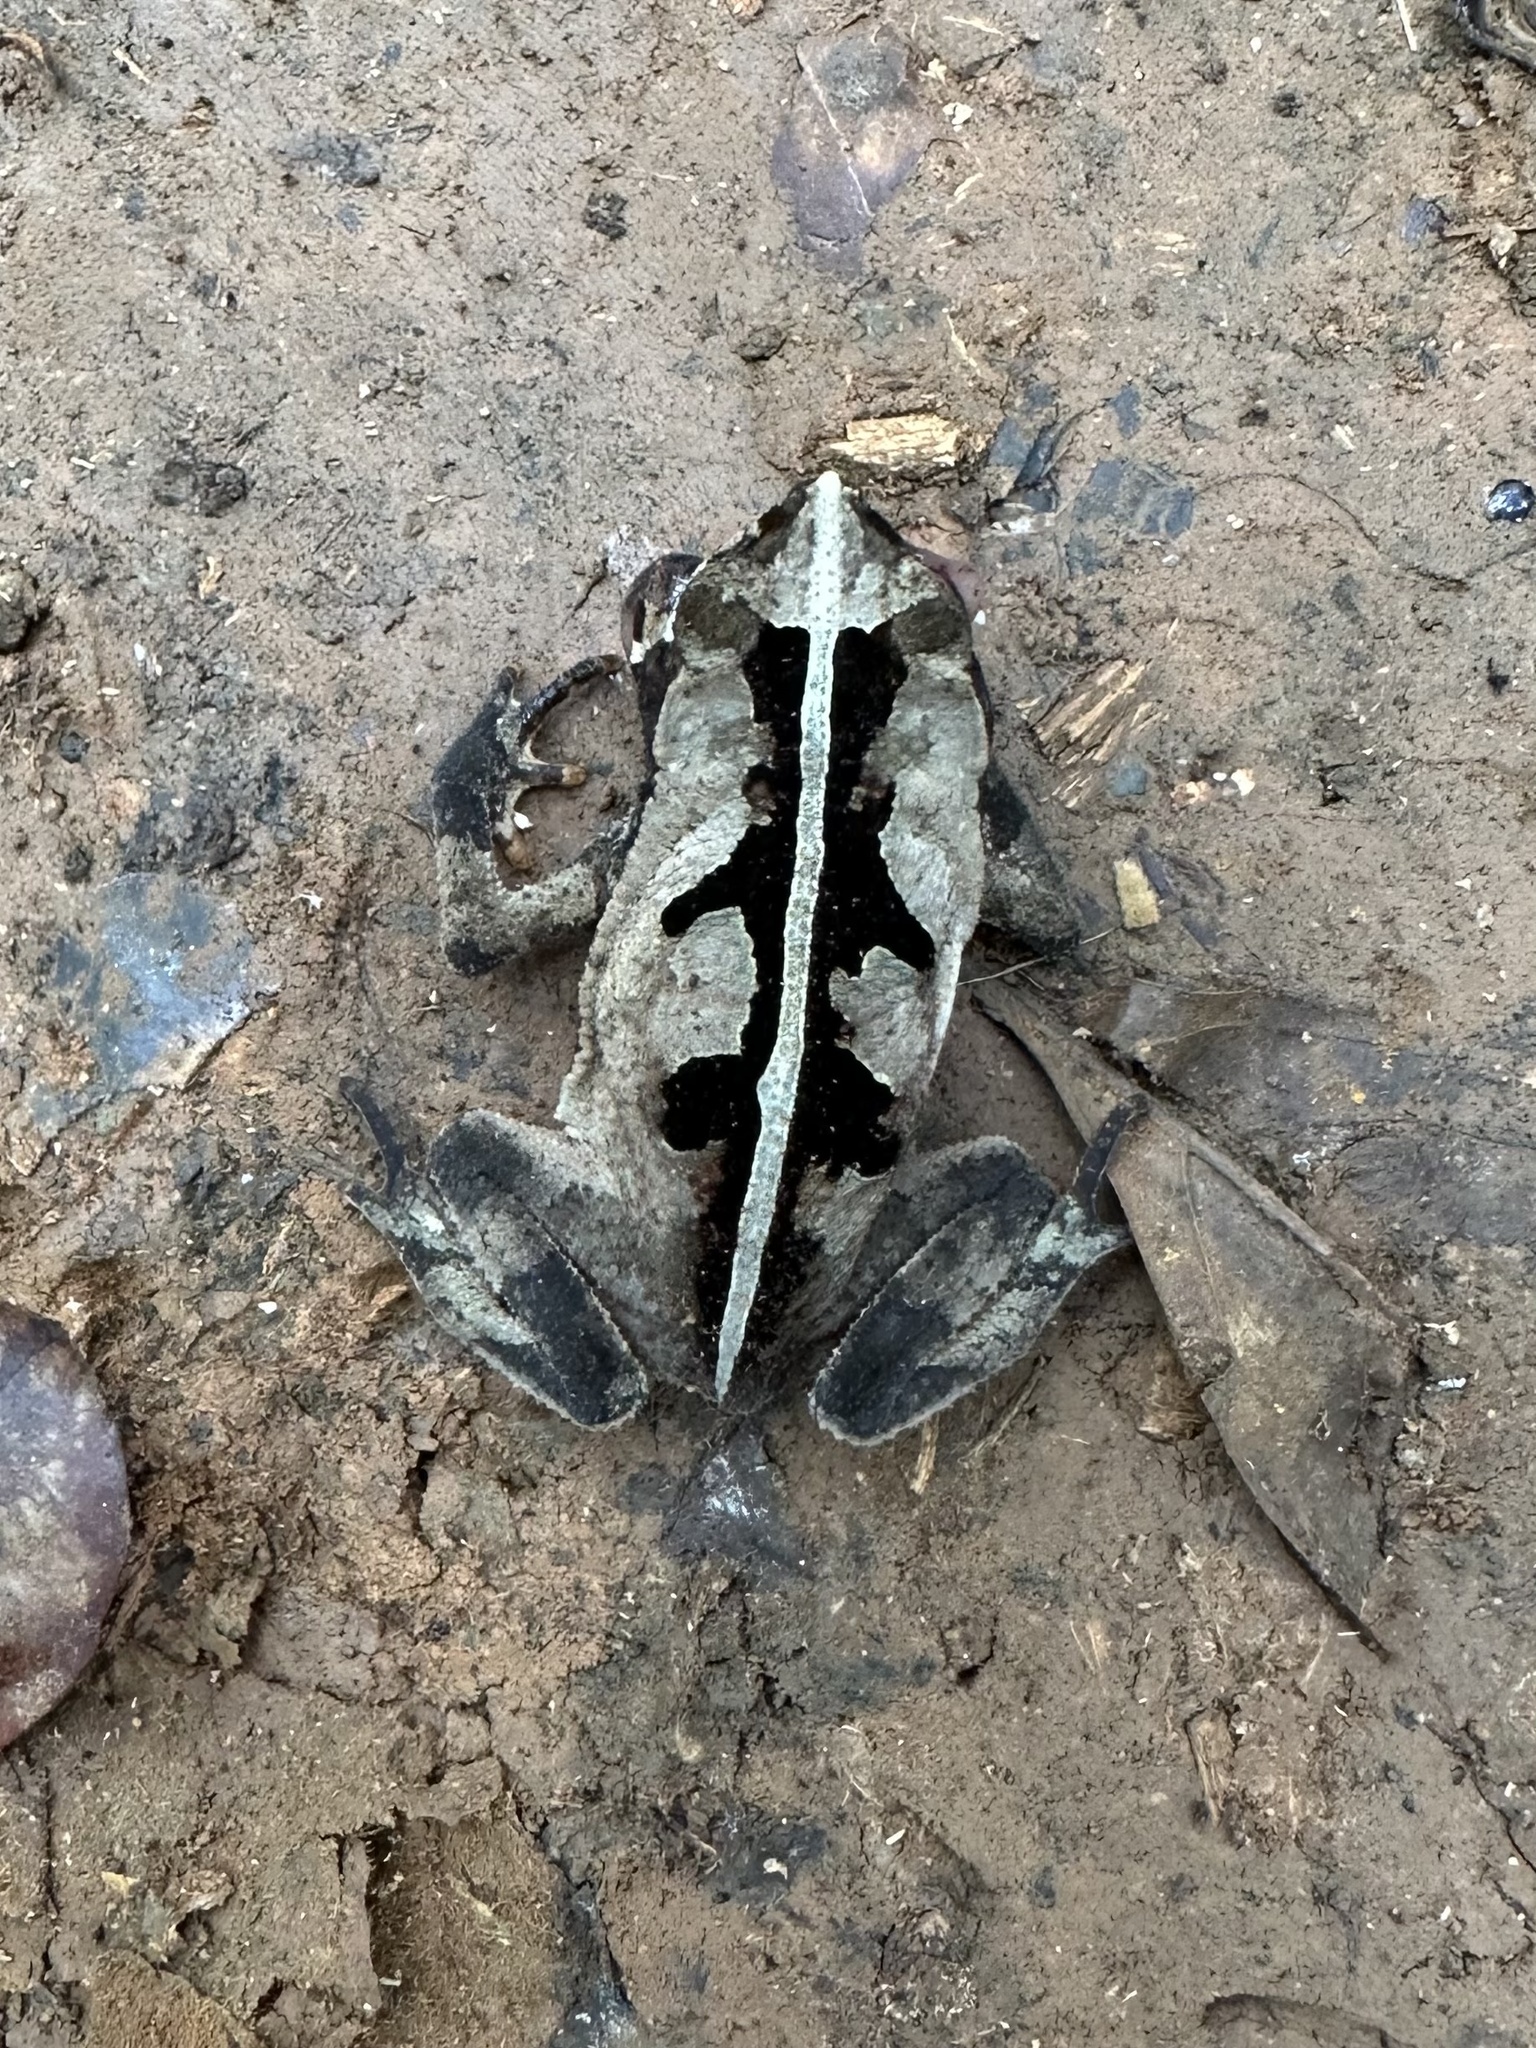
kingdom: Animalia
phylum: Chordata
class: Amphibia
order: Anura
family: Bufonidae
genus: Rhinella
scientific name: Rhinella alata
